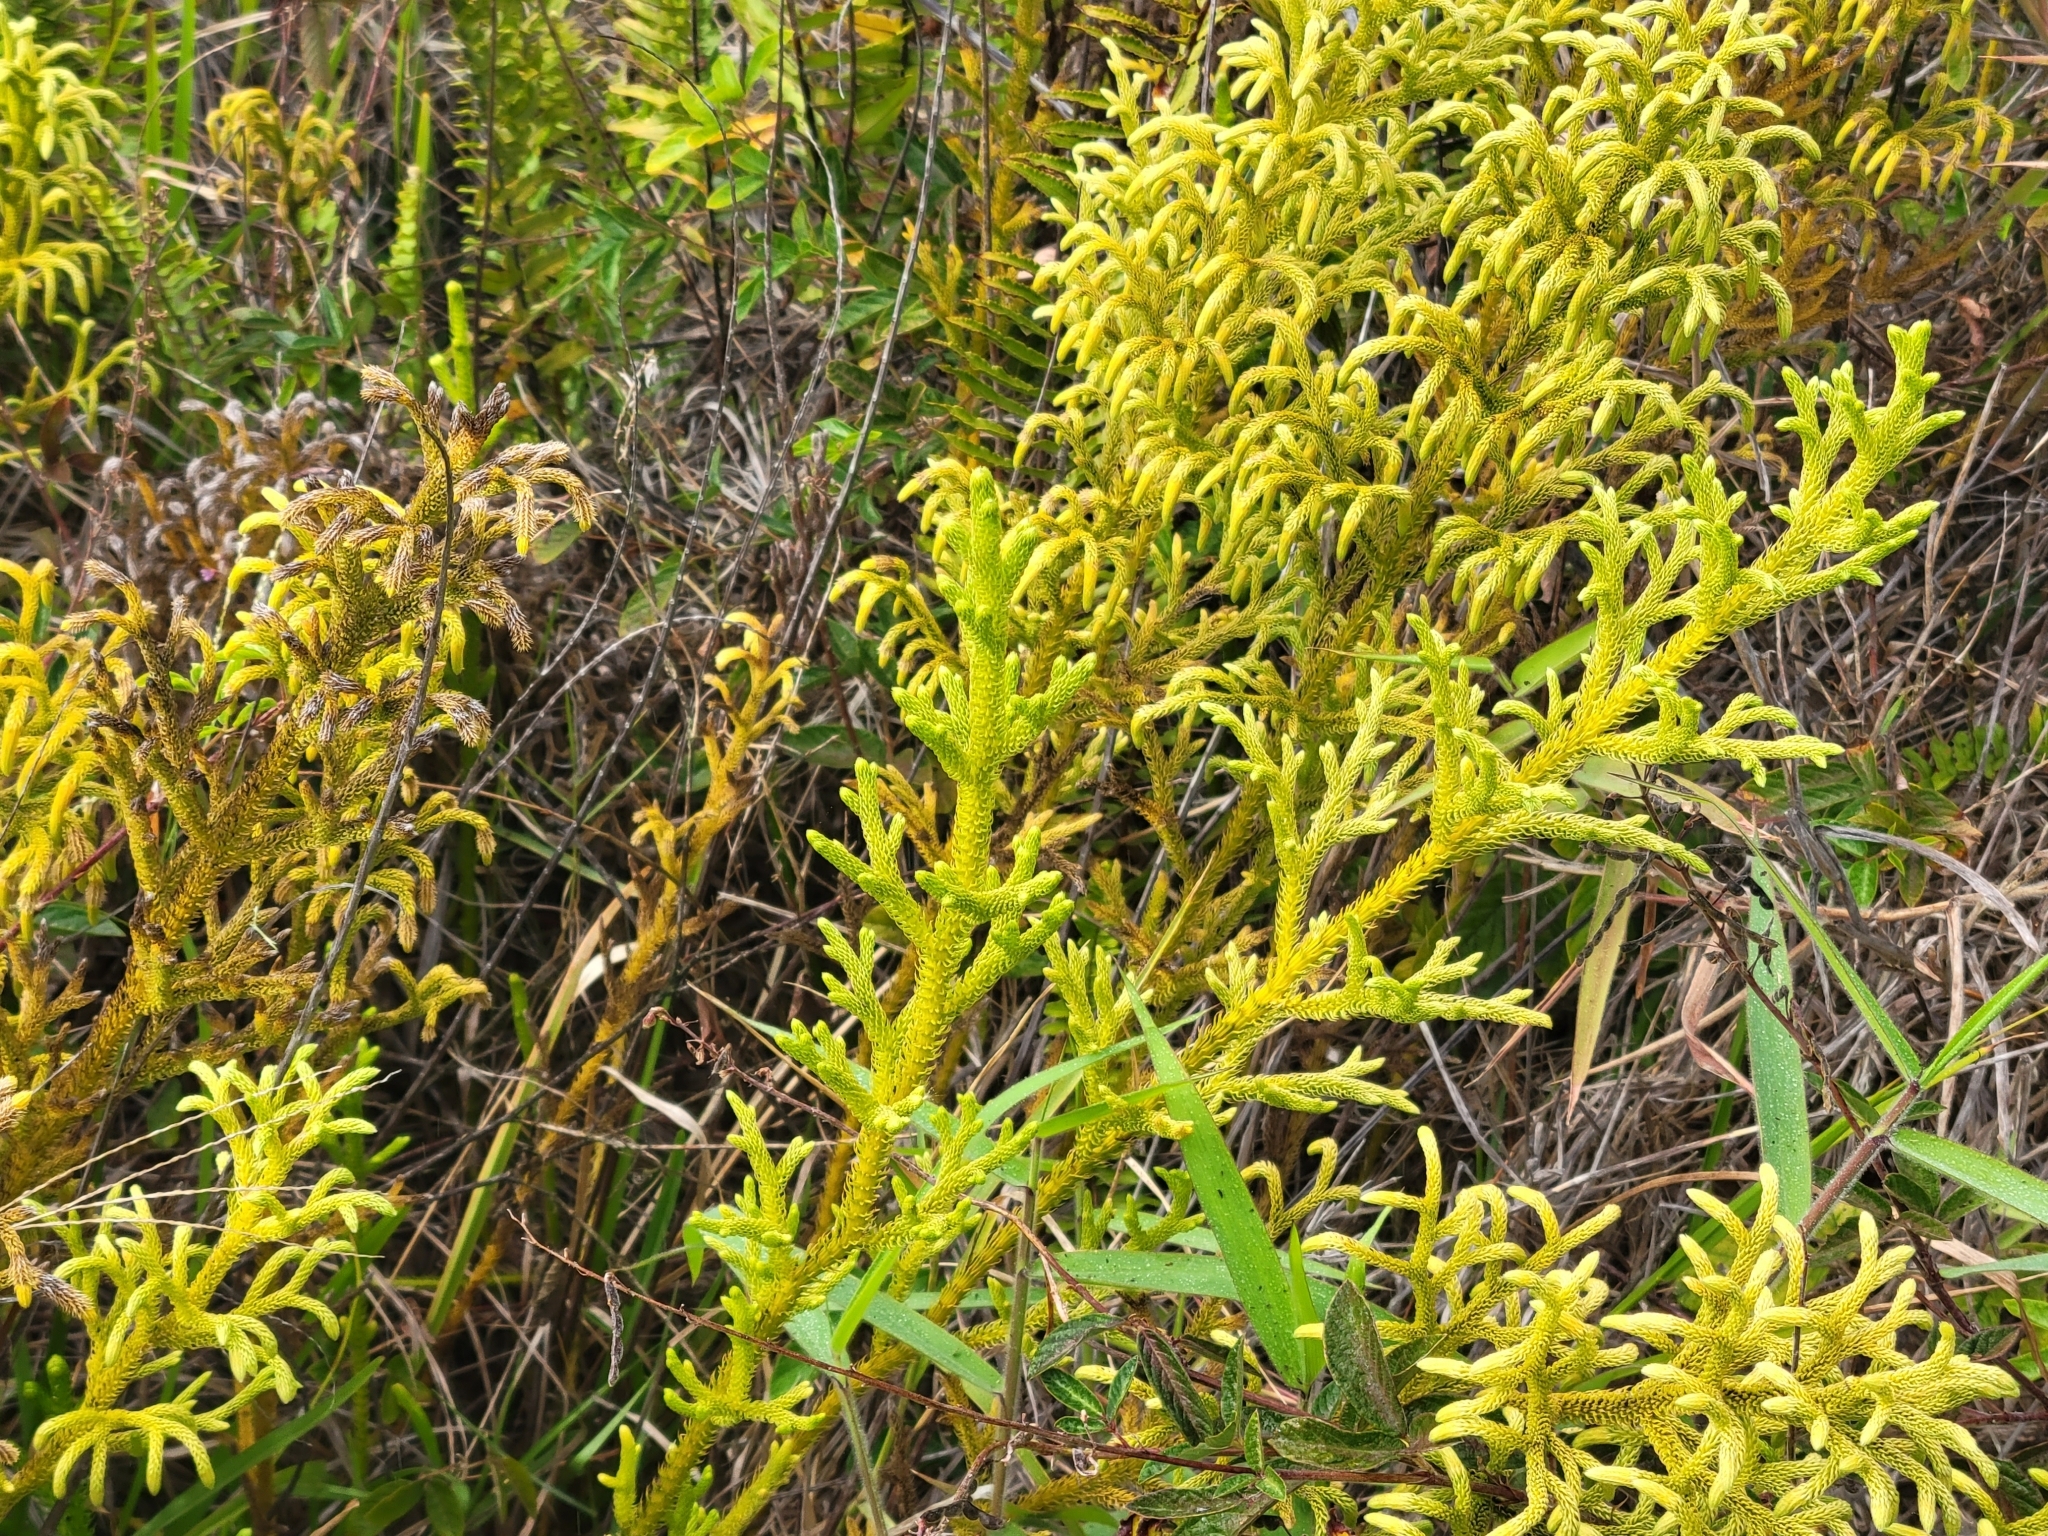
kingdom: Plantae
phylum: Tracheophyta
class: Lycopodiopsida
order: Lycopodiales
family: Lycopodiaceae
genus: Palhinhaea
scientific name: Palhinhaea cernua
